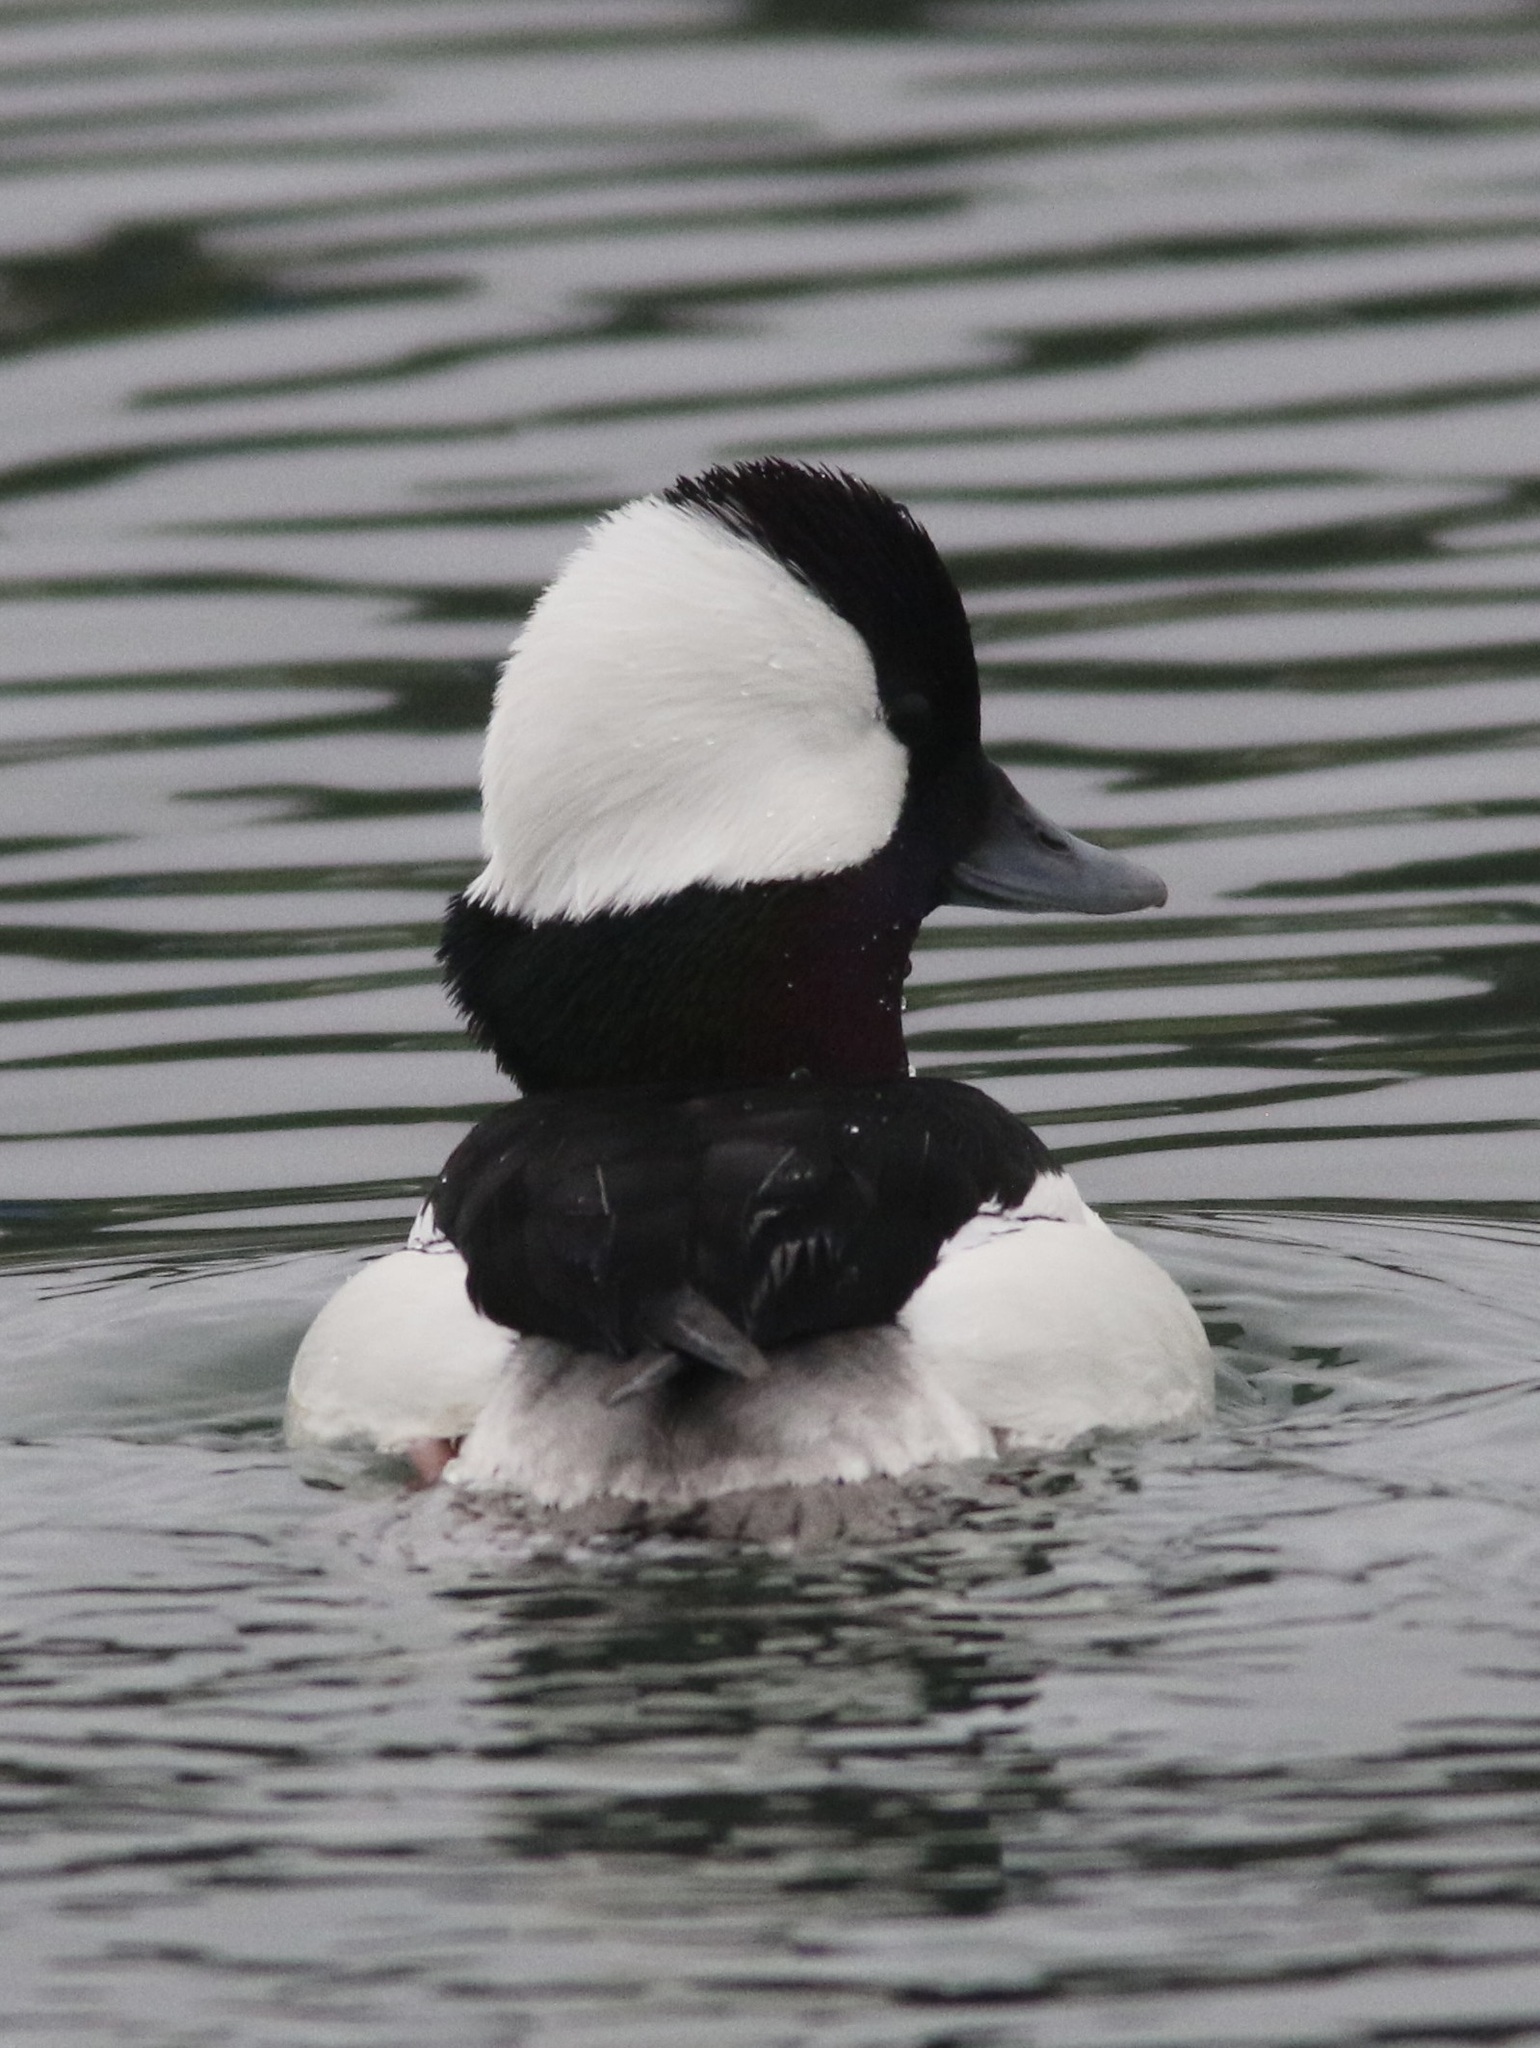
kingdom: Animalia
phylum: Chordata
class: Aves
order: Anseriformes
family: Anatidae
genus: Bucephala
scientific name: Bucephala albeola
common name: Bufflehead
